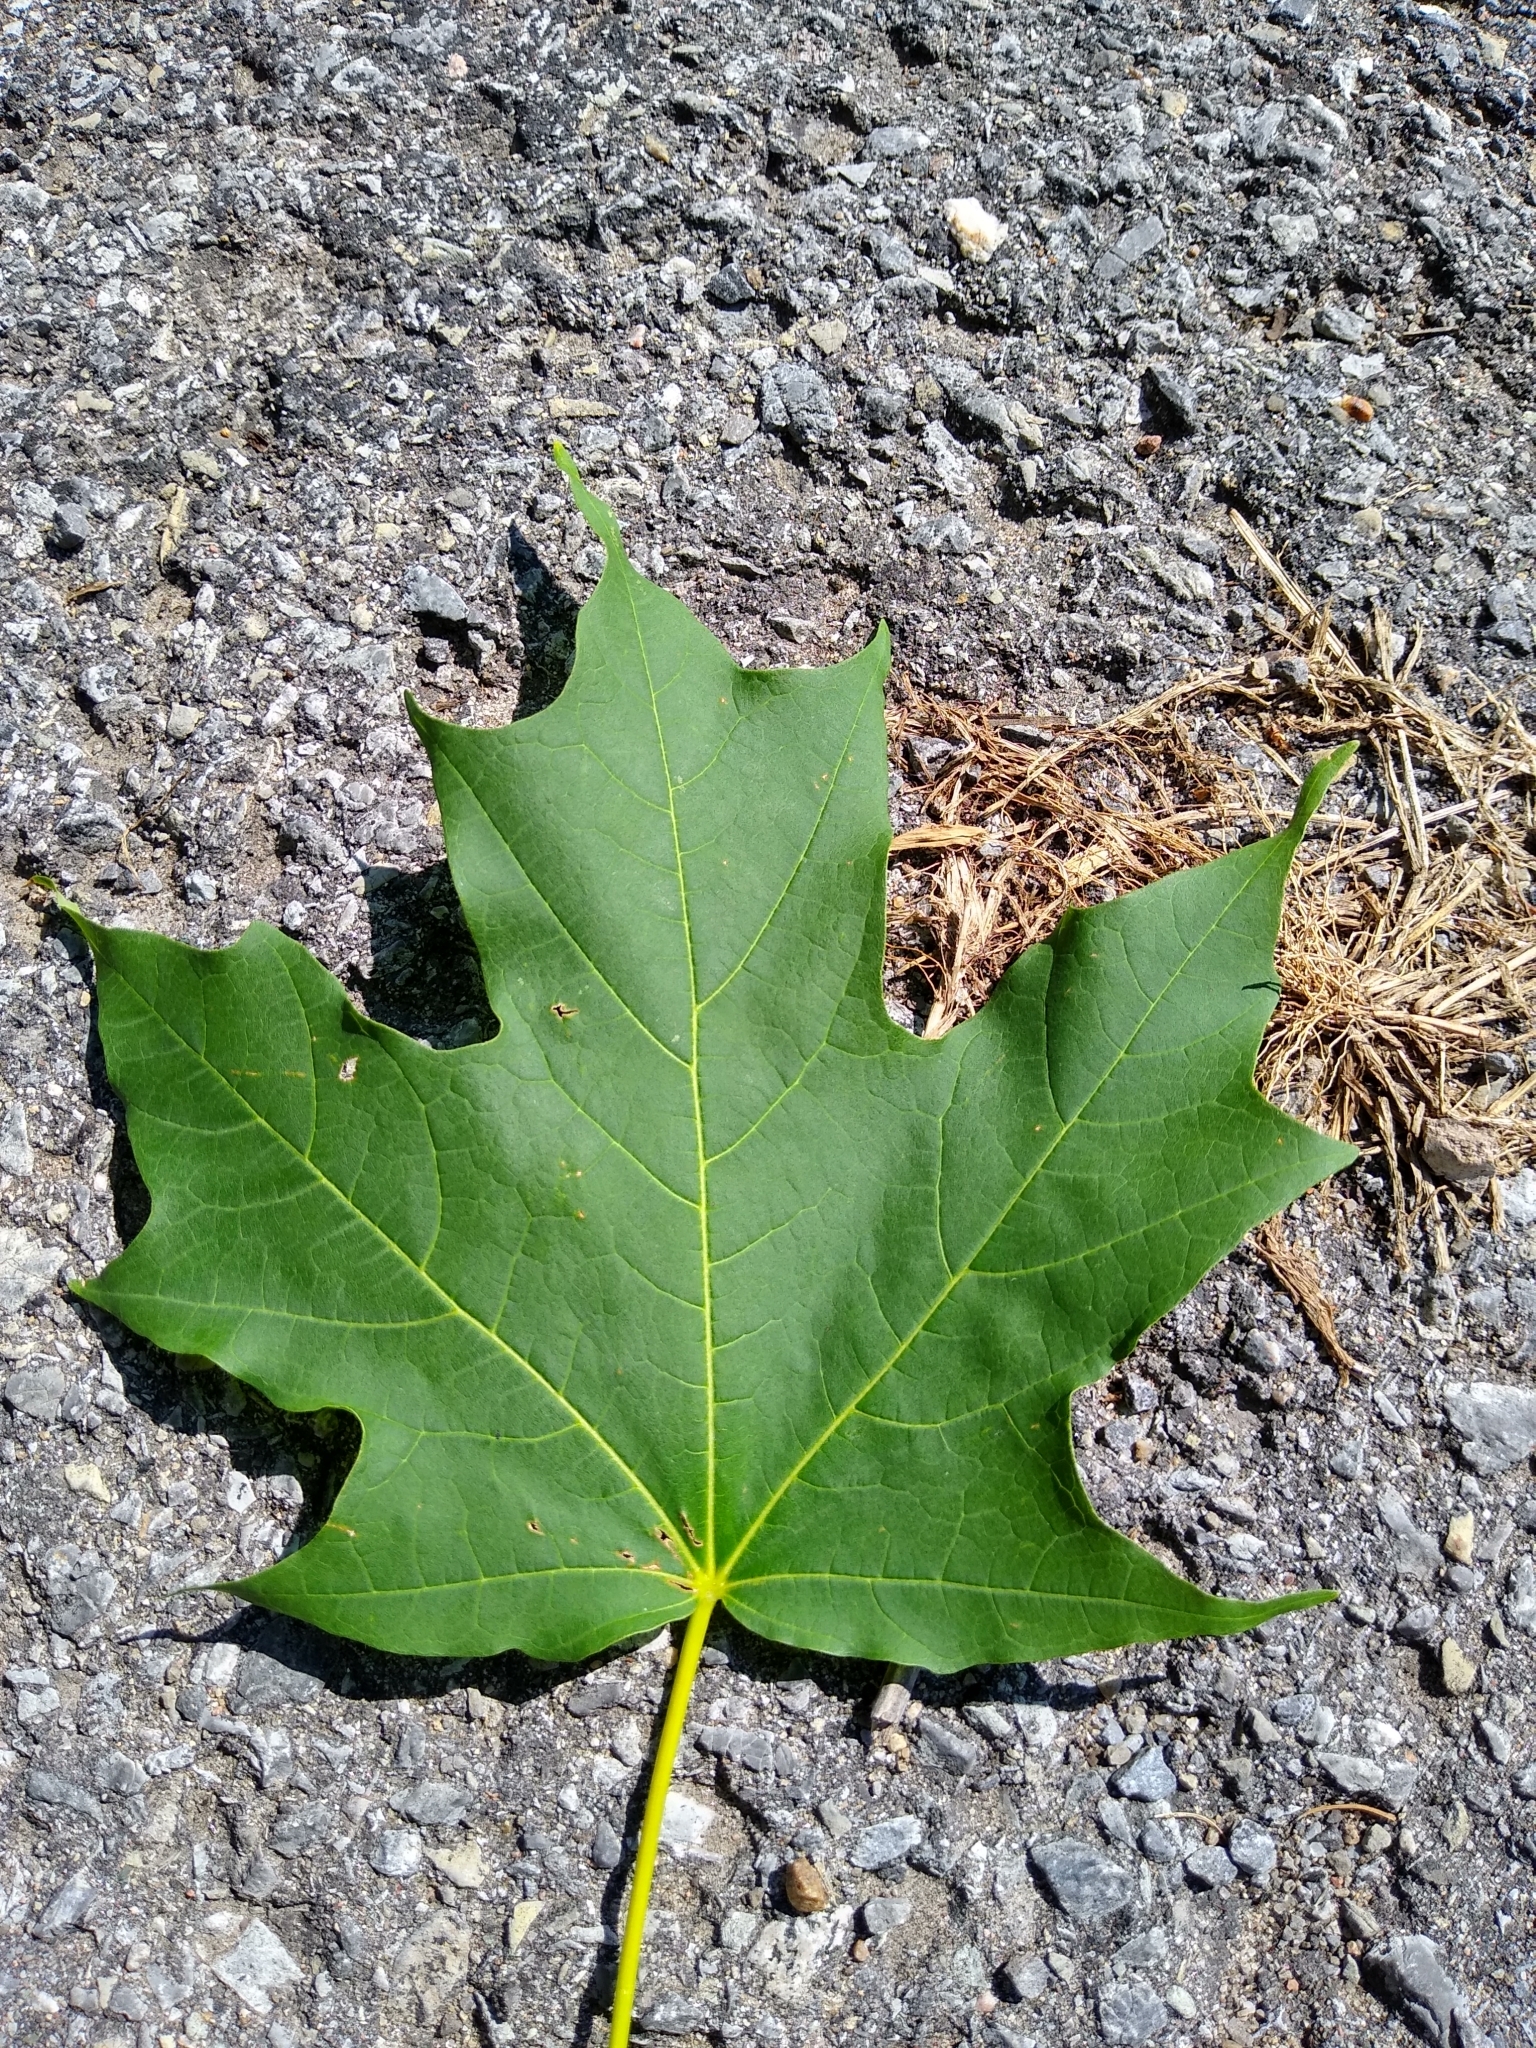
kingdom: Plantae
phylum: Tracheophyta
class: Magnoliopsida
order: Sapindales
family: Sapindaceae
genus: Acer
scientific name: Acer saccharum
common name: Sugar maple
